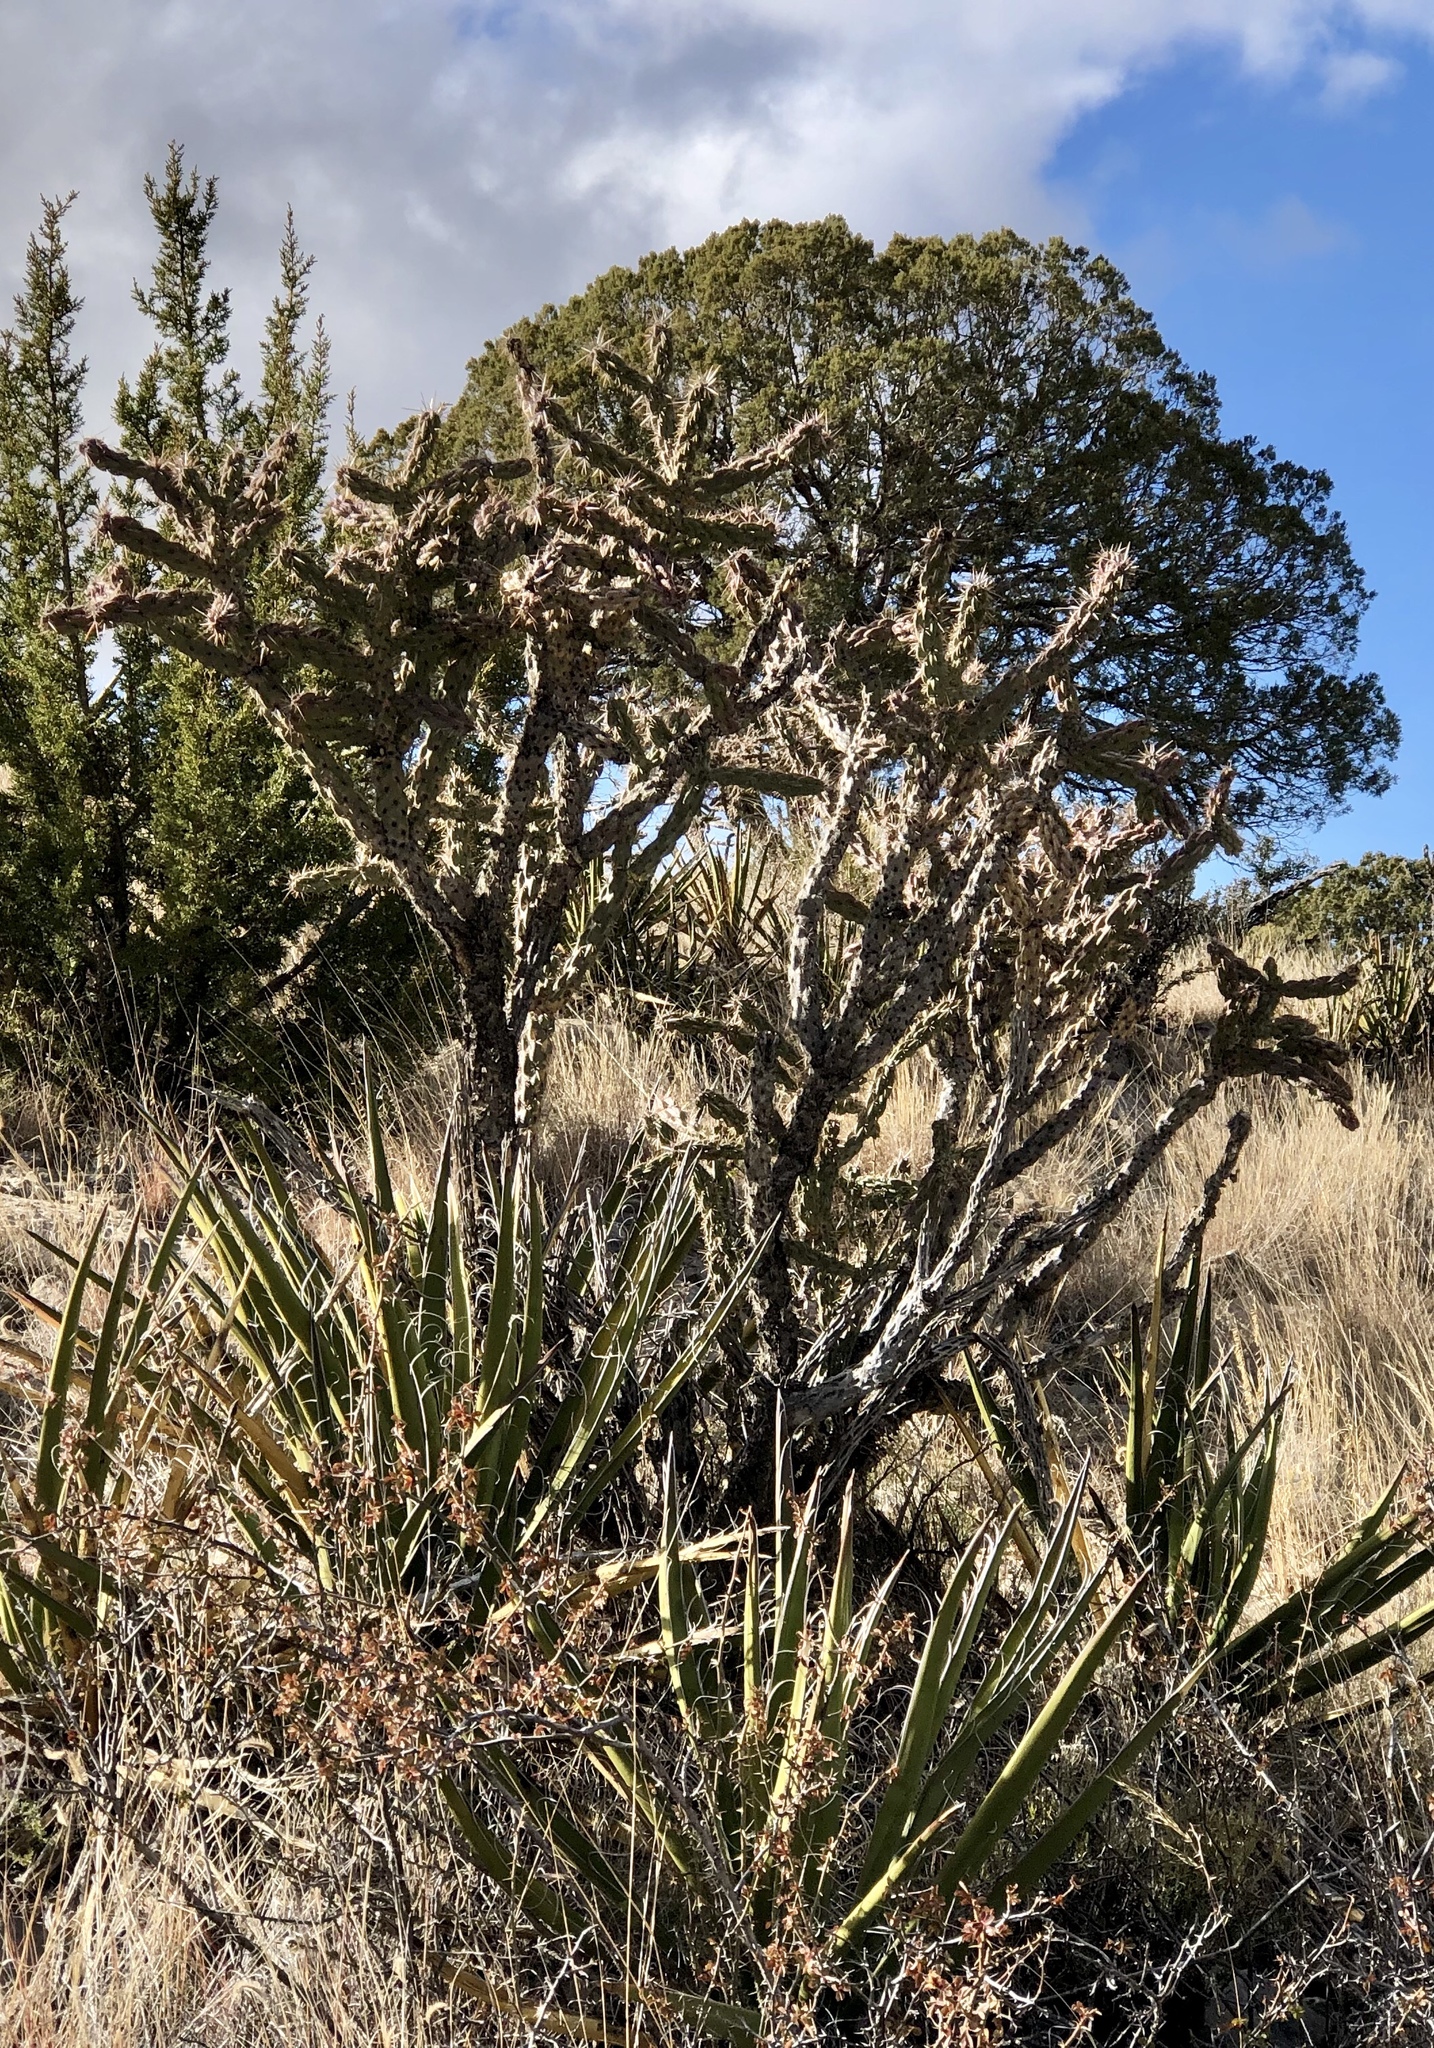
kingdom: Plantae
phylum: Tracheophyta
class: Magnoliopsida
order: Caryophyllales
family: Cactaceae
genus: Cylindropuntia
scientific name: Cylindropuntia imbricata
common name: Candelabrum cactus
